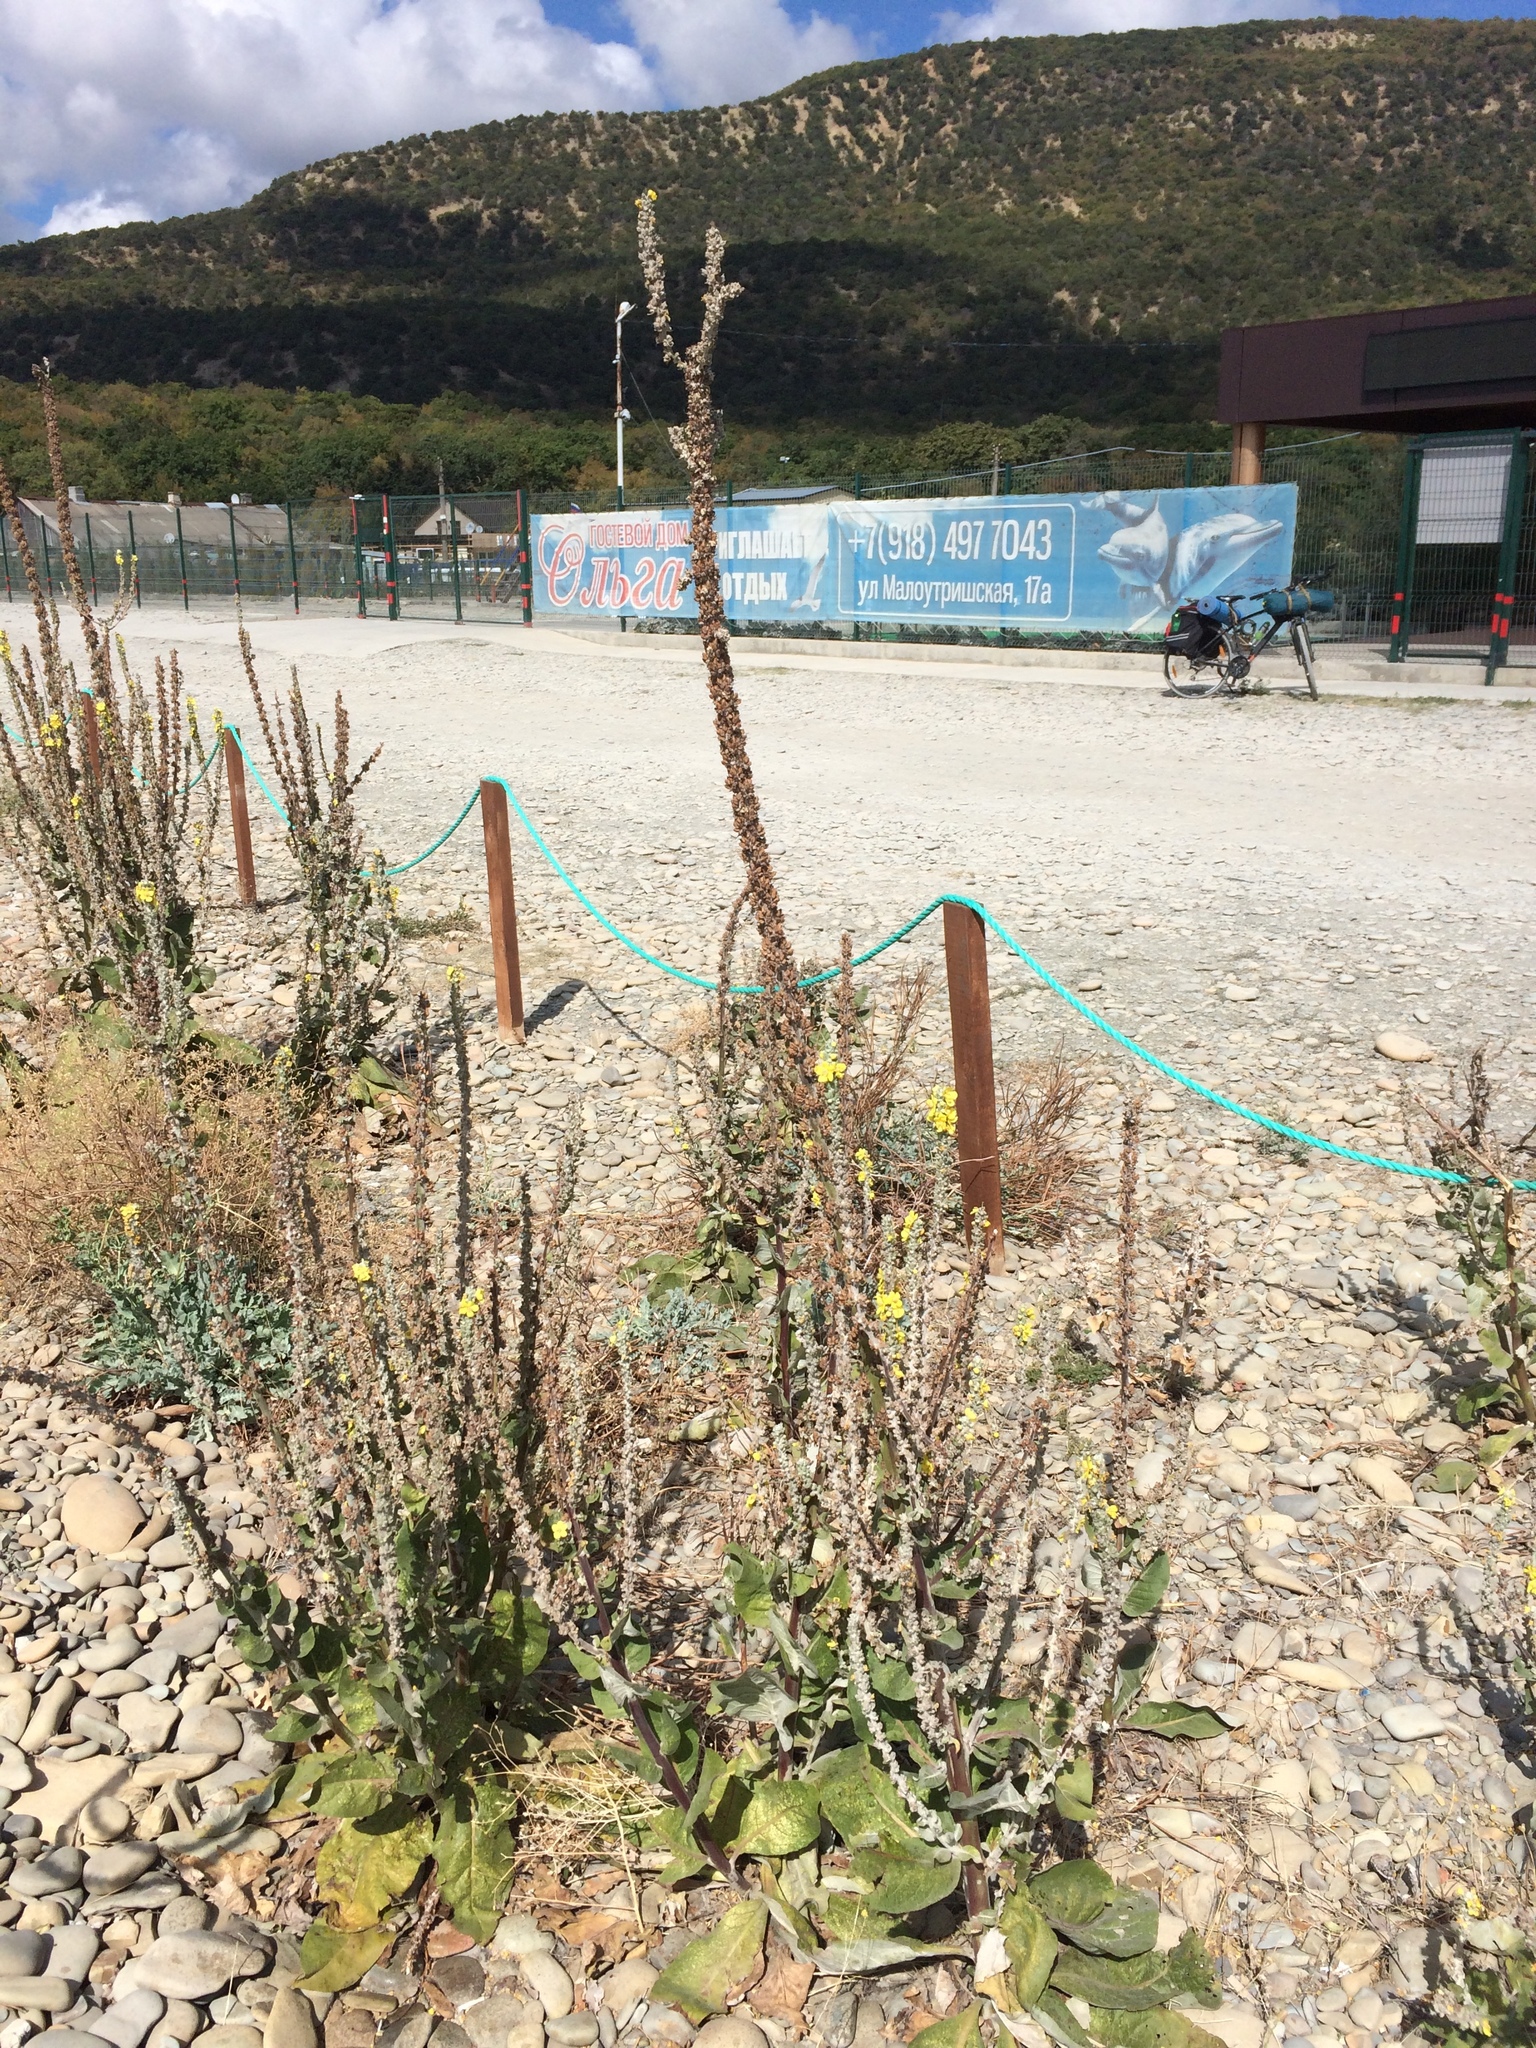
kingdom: Plantae
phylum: Tracheophyta
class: Magnoliopsida
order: Lamiales
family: Scrophulariaceae
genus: Verbascum
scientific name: Verbascum lychnitis
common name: White mullein
